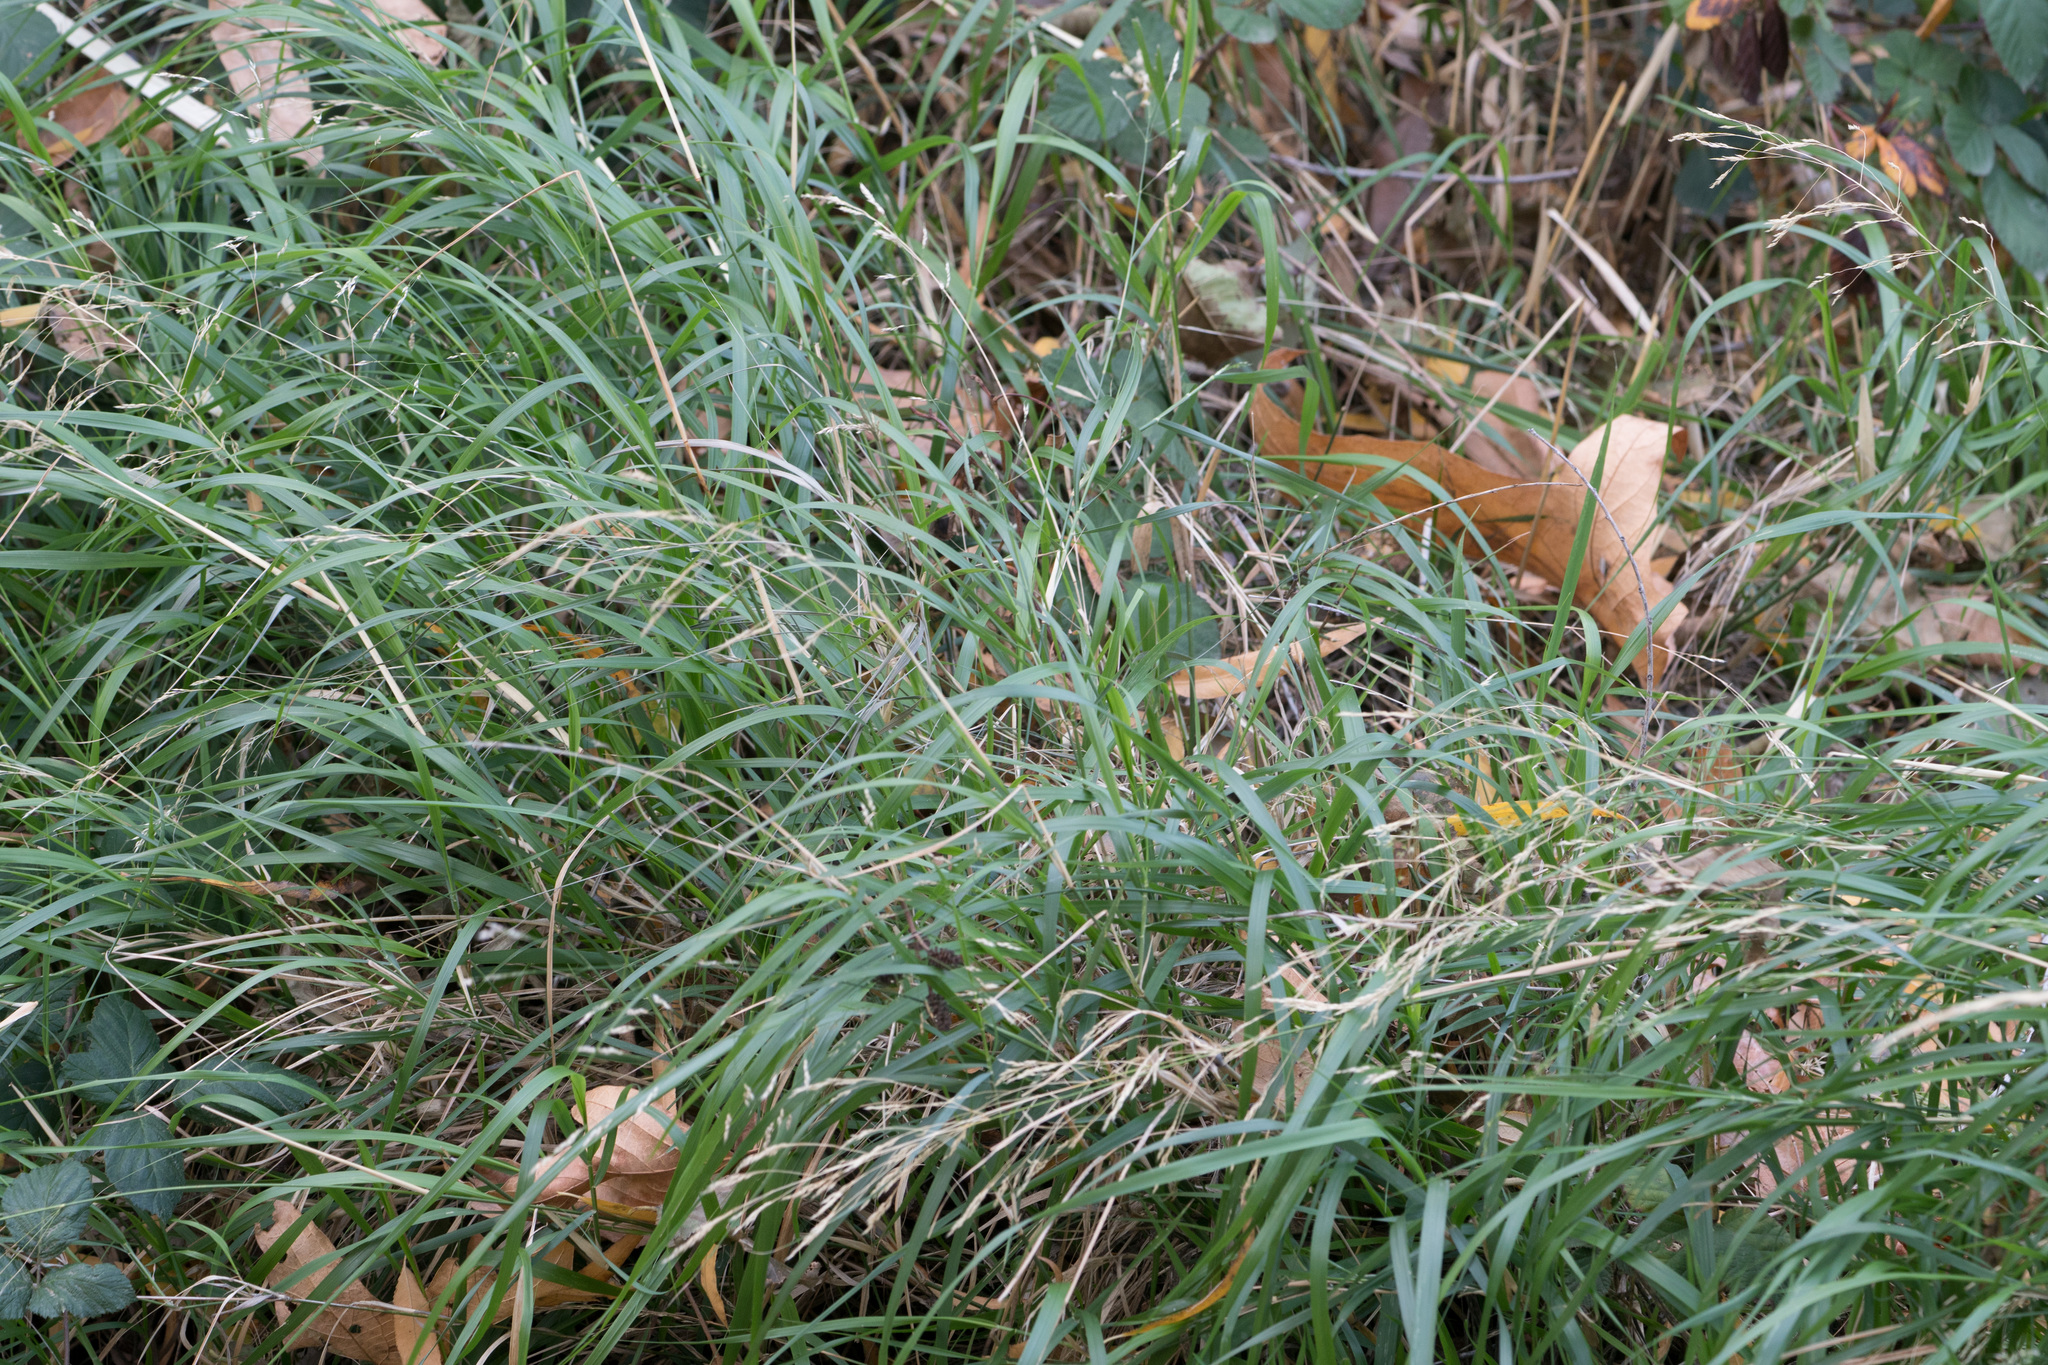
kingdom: Plantae
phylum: Tracheophyta
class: Liliopsida
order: Poales
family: Poaceae
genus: Oloptum
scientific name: Oloptum miliaceum
